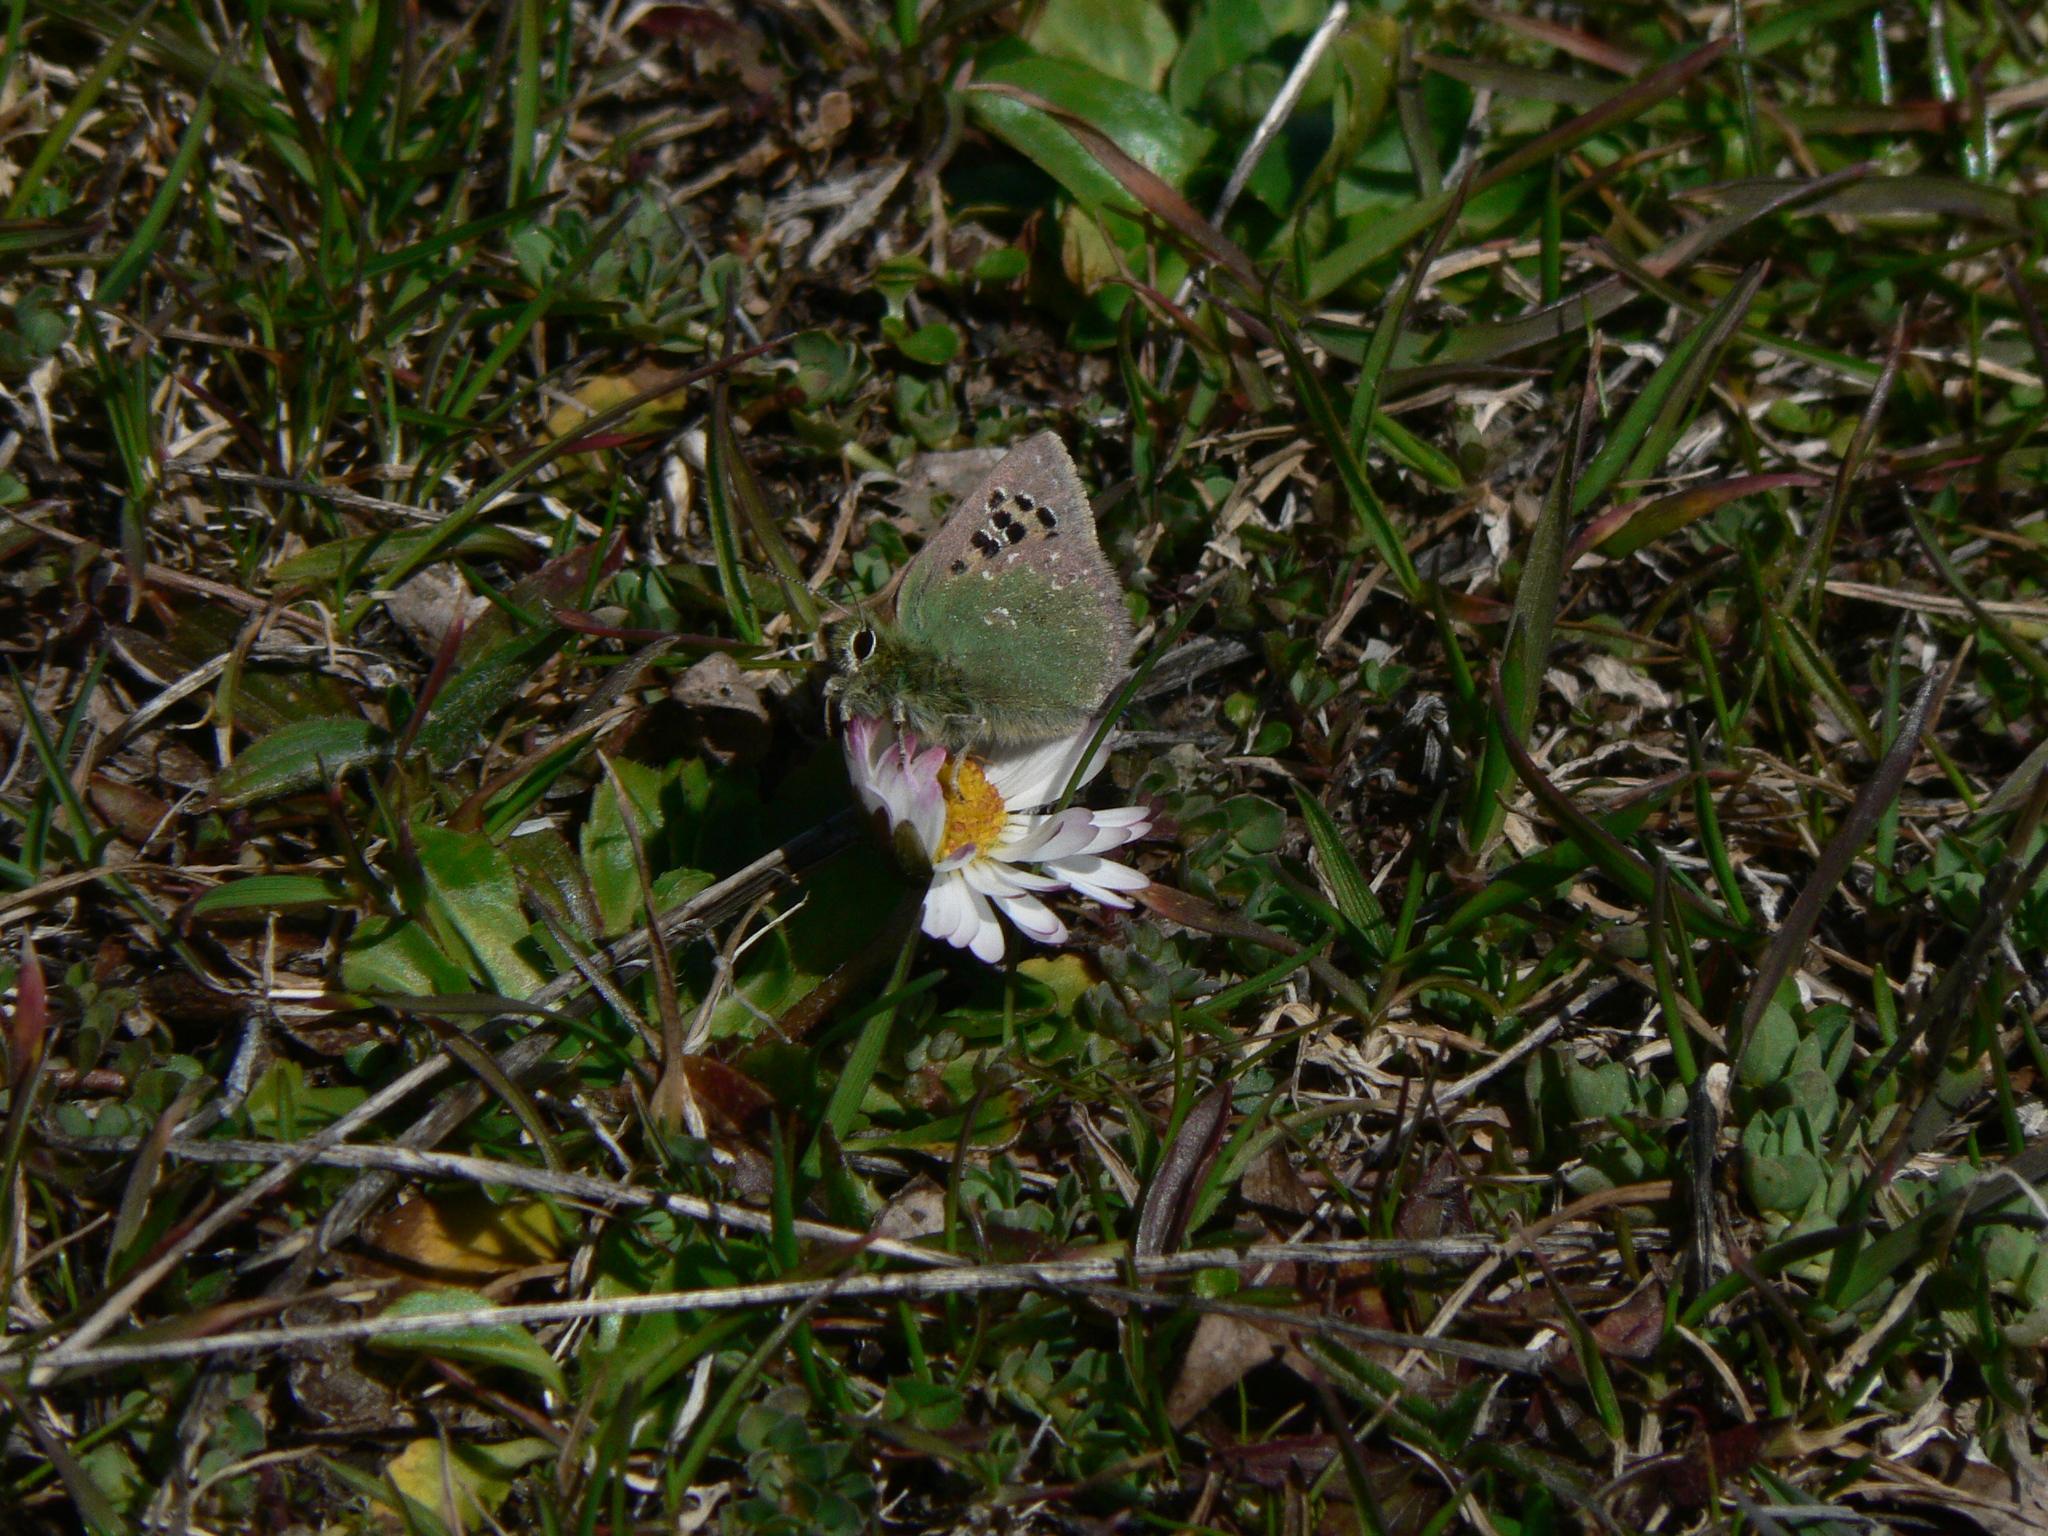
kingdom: Animalia
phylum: Arthropoda
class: Insecta
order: Lepidoptera
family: Lycaenidae
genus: Tomares
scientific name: Tomares ballus
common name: Provence hairstreak
